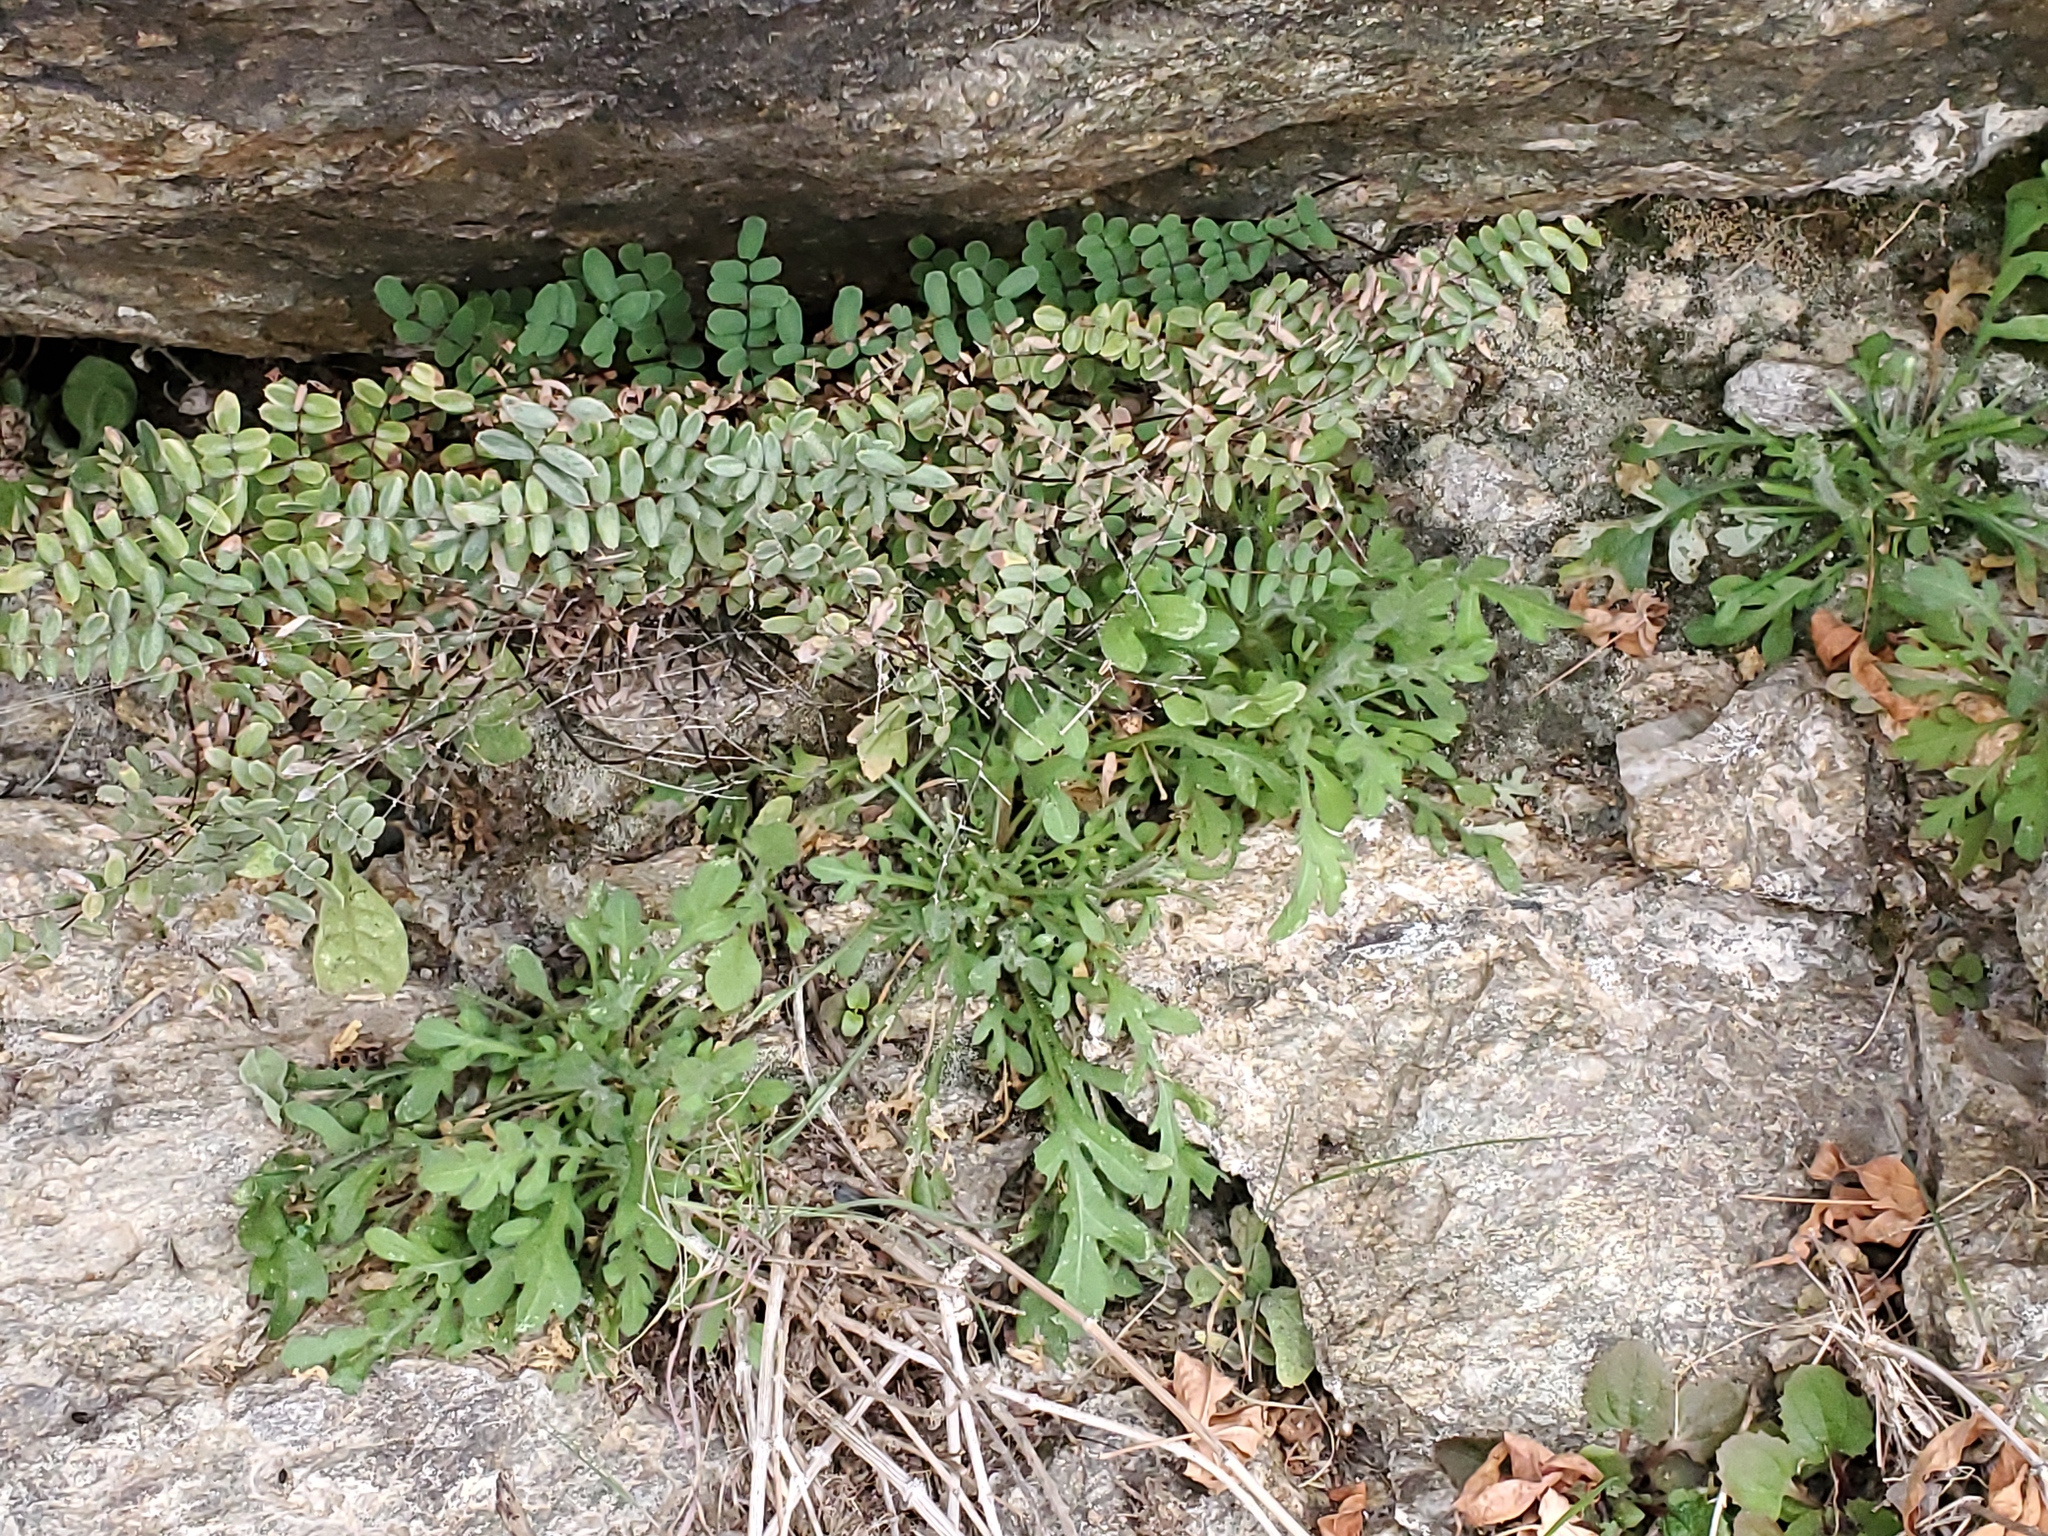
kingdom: Plantae
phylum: Tracheophyta
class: Polypodiopsida
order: Polypodiales
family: Pteridaceae
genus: Pellaea
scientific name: Pellaea truncata
